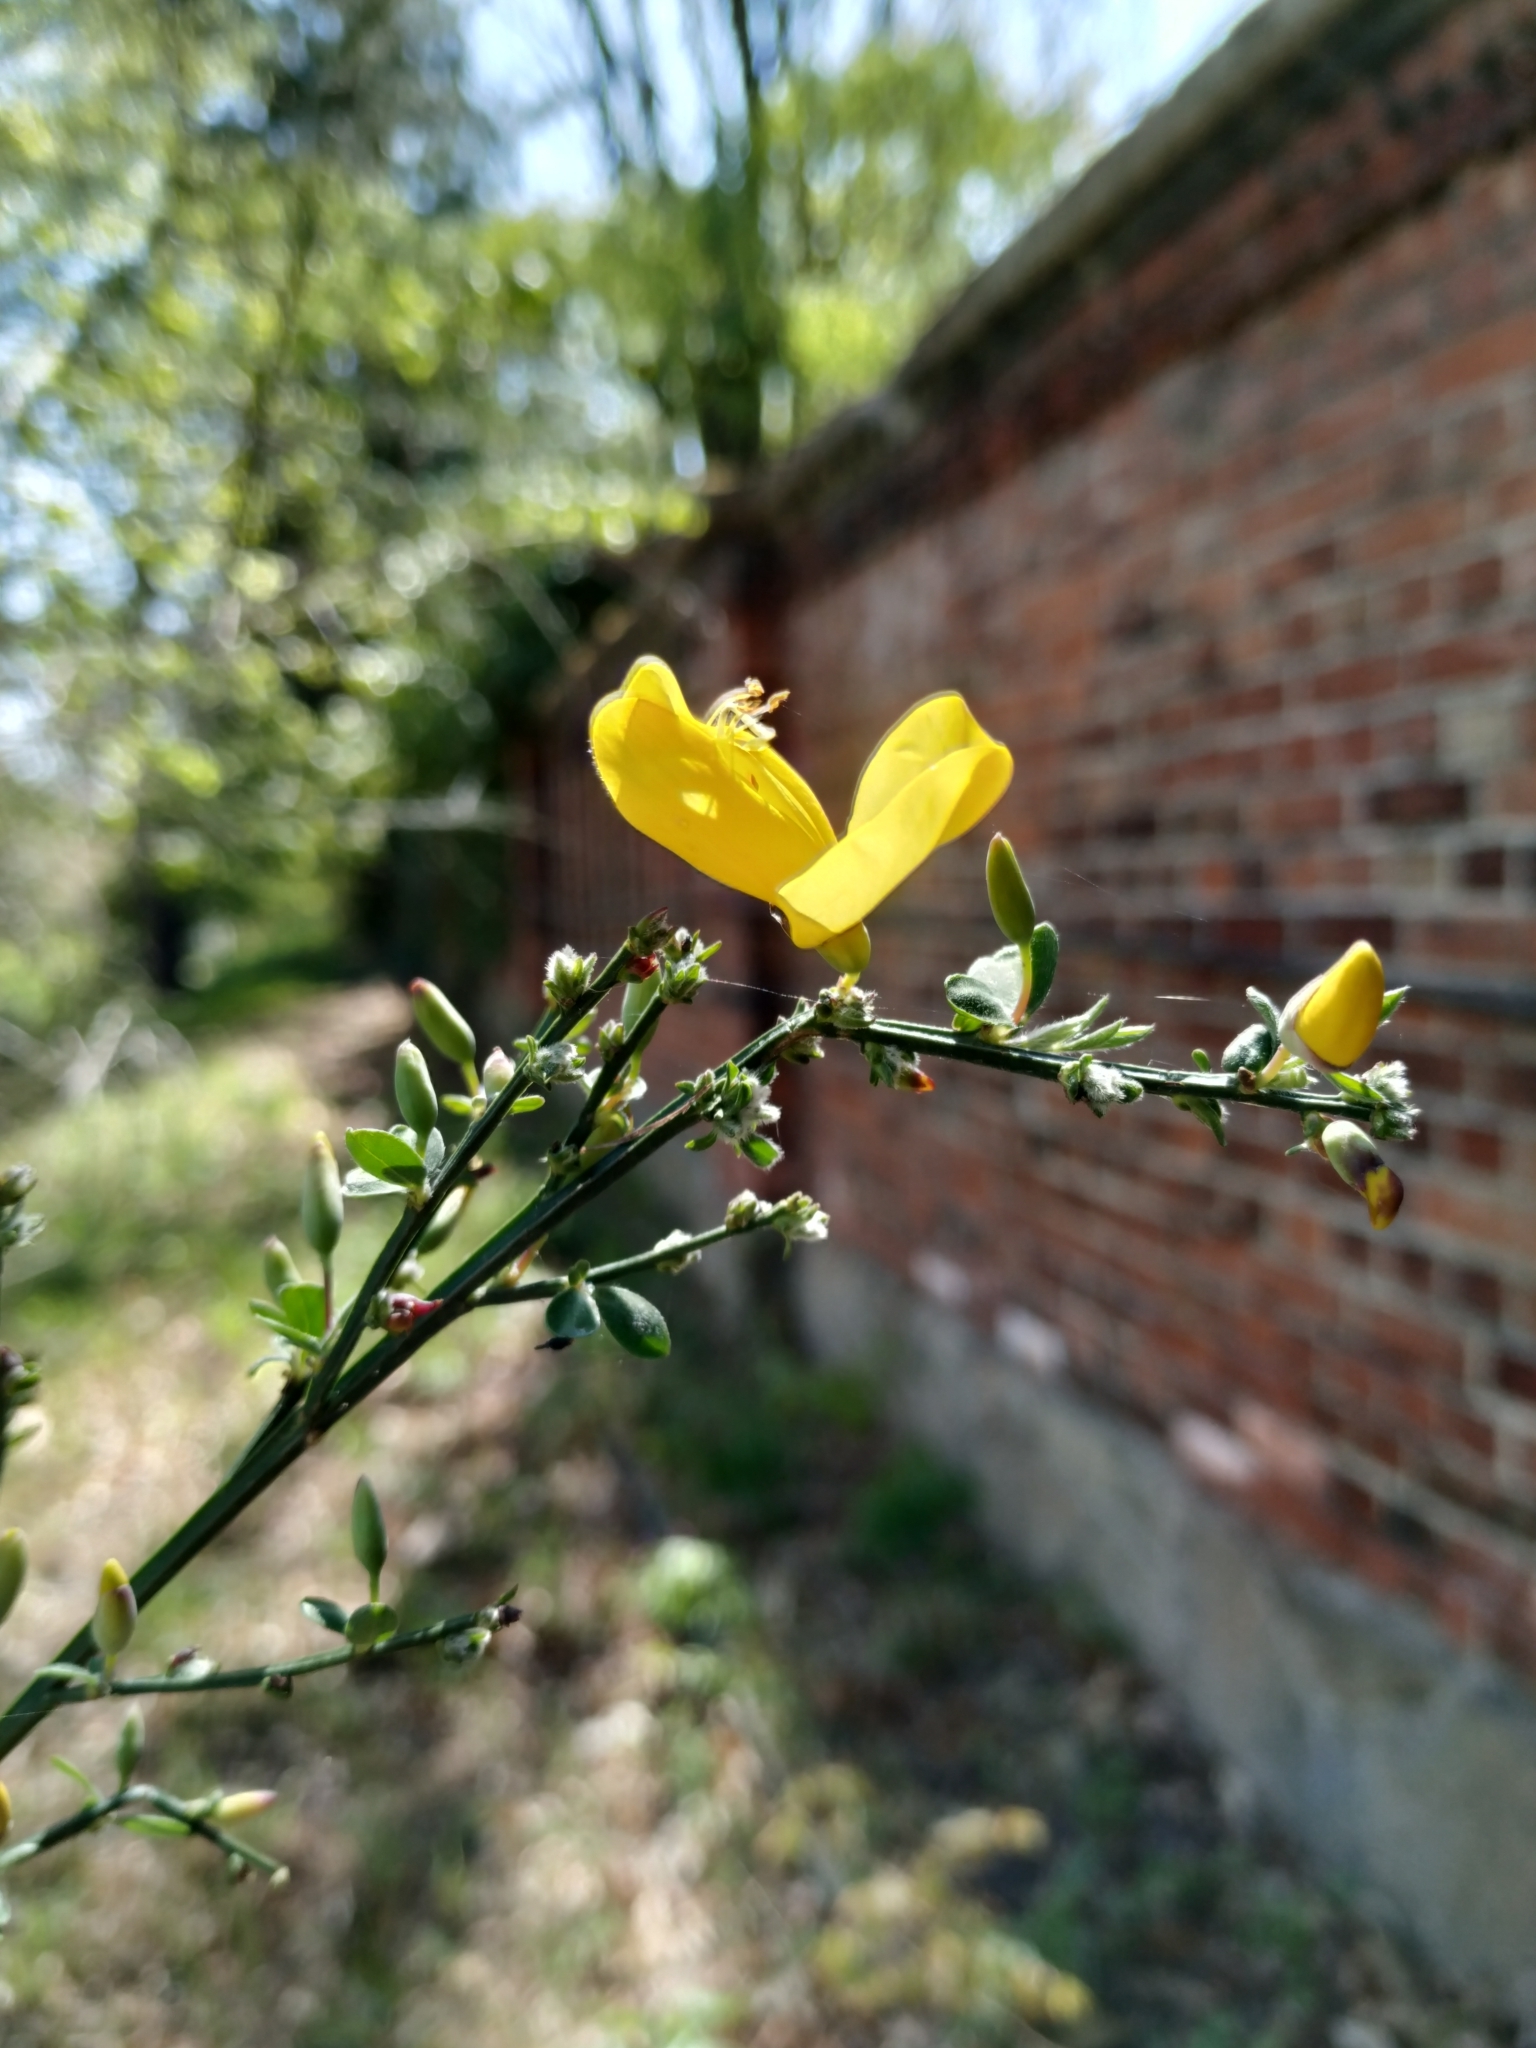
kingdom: Plantae
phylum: Tracheophyta
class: Magnoliopsida
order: Fabales
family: Fabaceae
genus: Cytisus
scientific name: Cytisus scoparius
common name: Scotch broom
